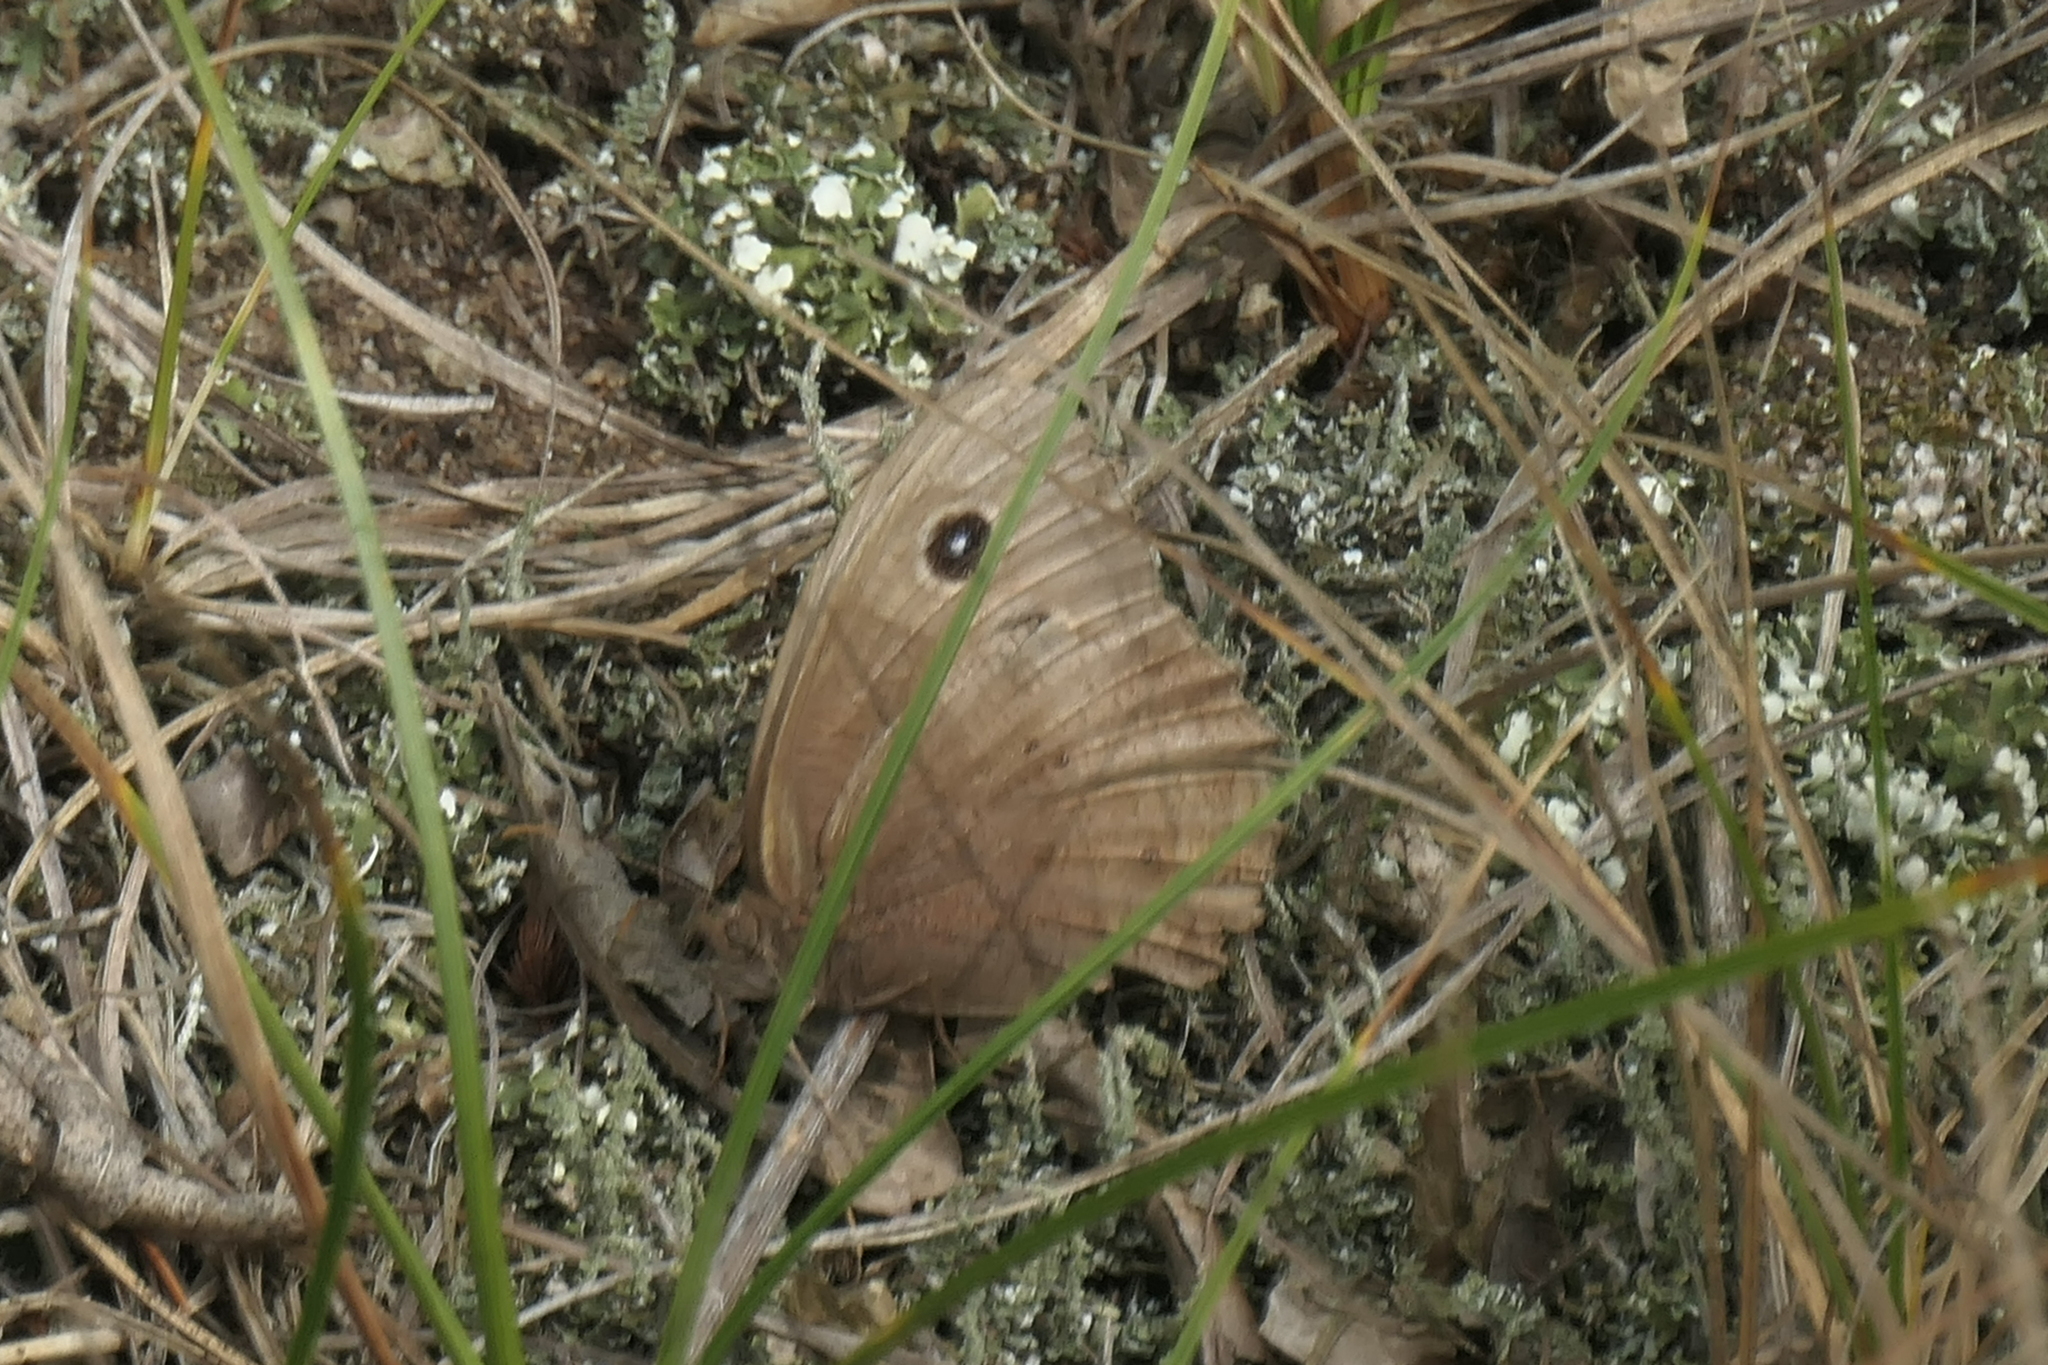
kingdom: Animalia
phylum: Arthropoda
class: Insecta
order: Lepidoptera
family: Nymphalidae
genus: Cercyonis
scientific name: Cercyonis pegala
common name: Common wood-nymph
